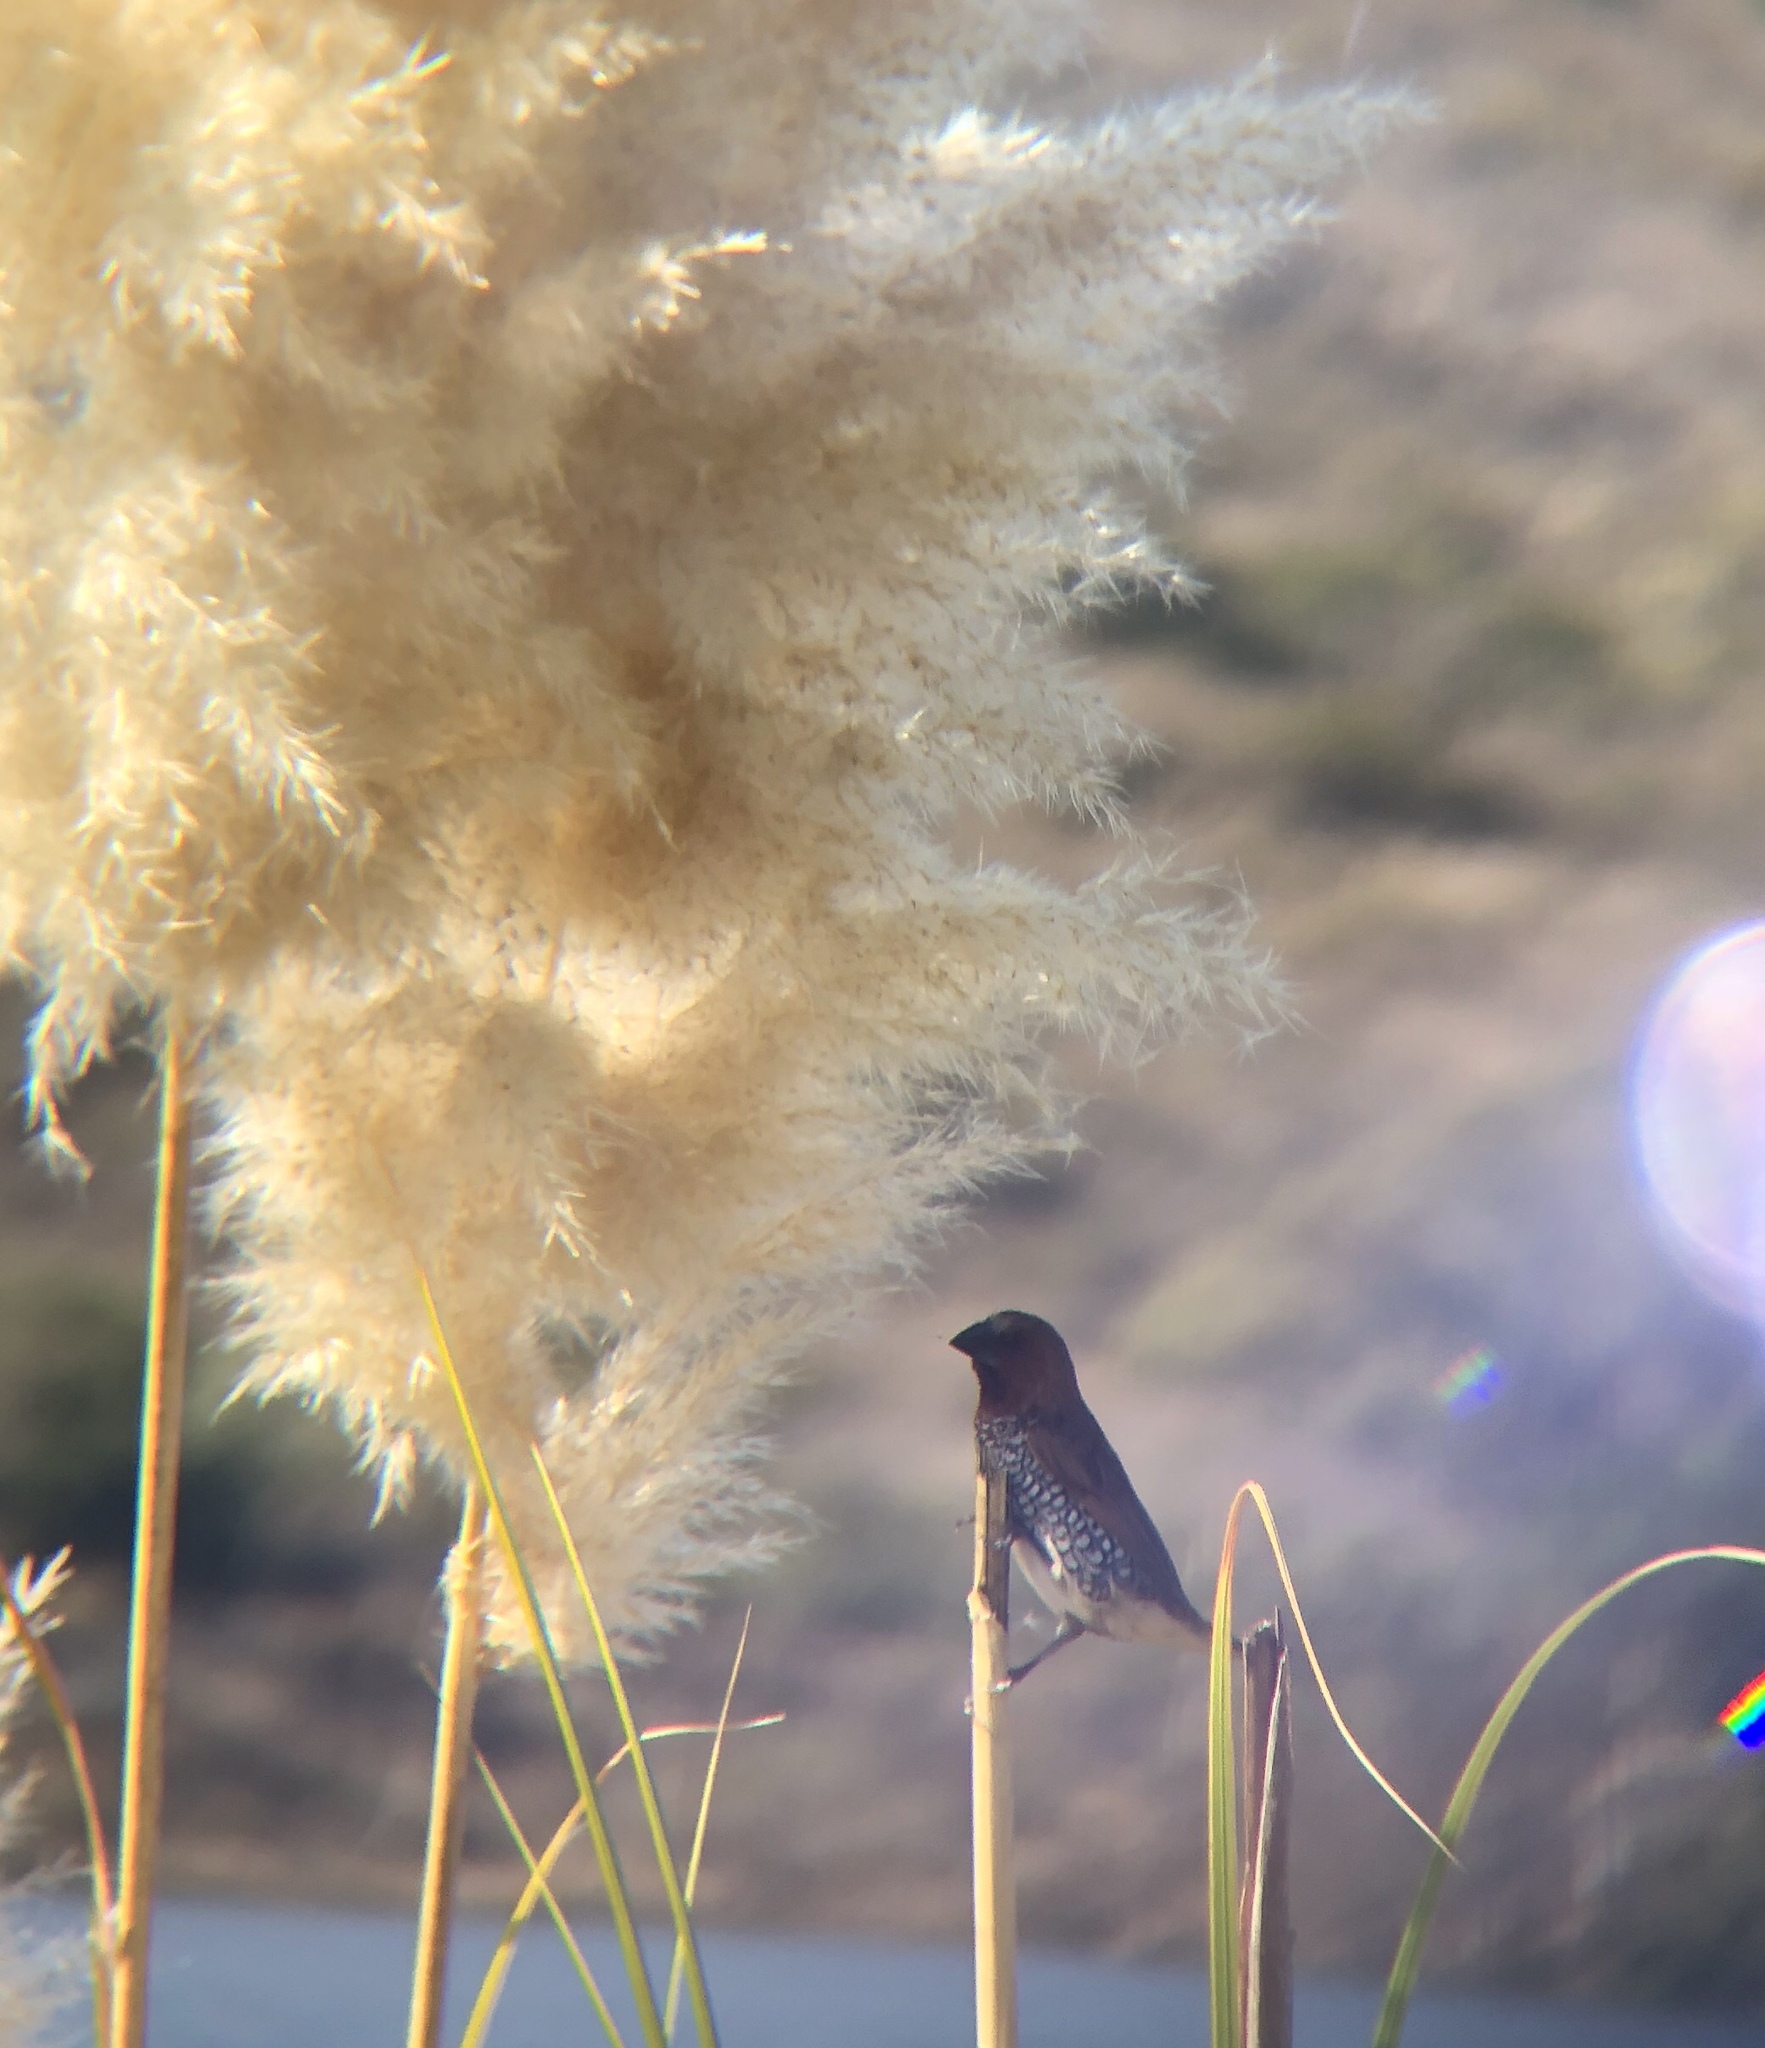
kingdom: Animalia
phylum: Chordata
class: Aves
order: Passeriformes
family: Estrildidae
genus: Lonchura
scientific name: Lonchura punctulata
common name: Scaly-breasted munia
